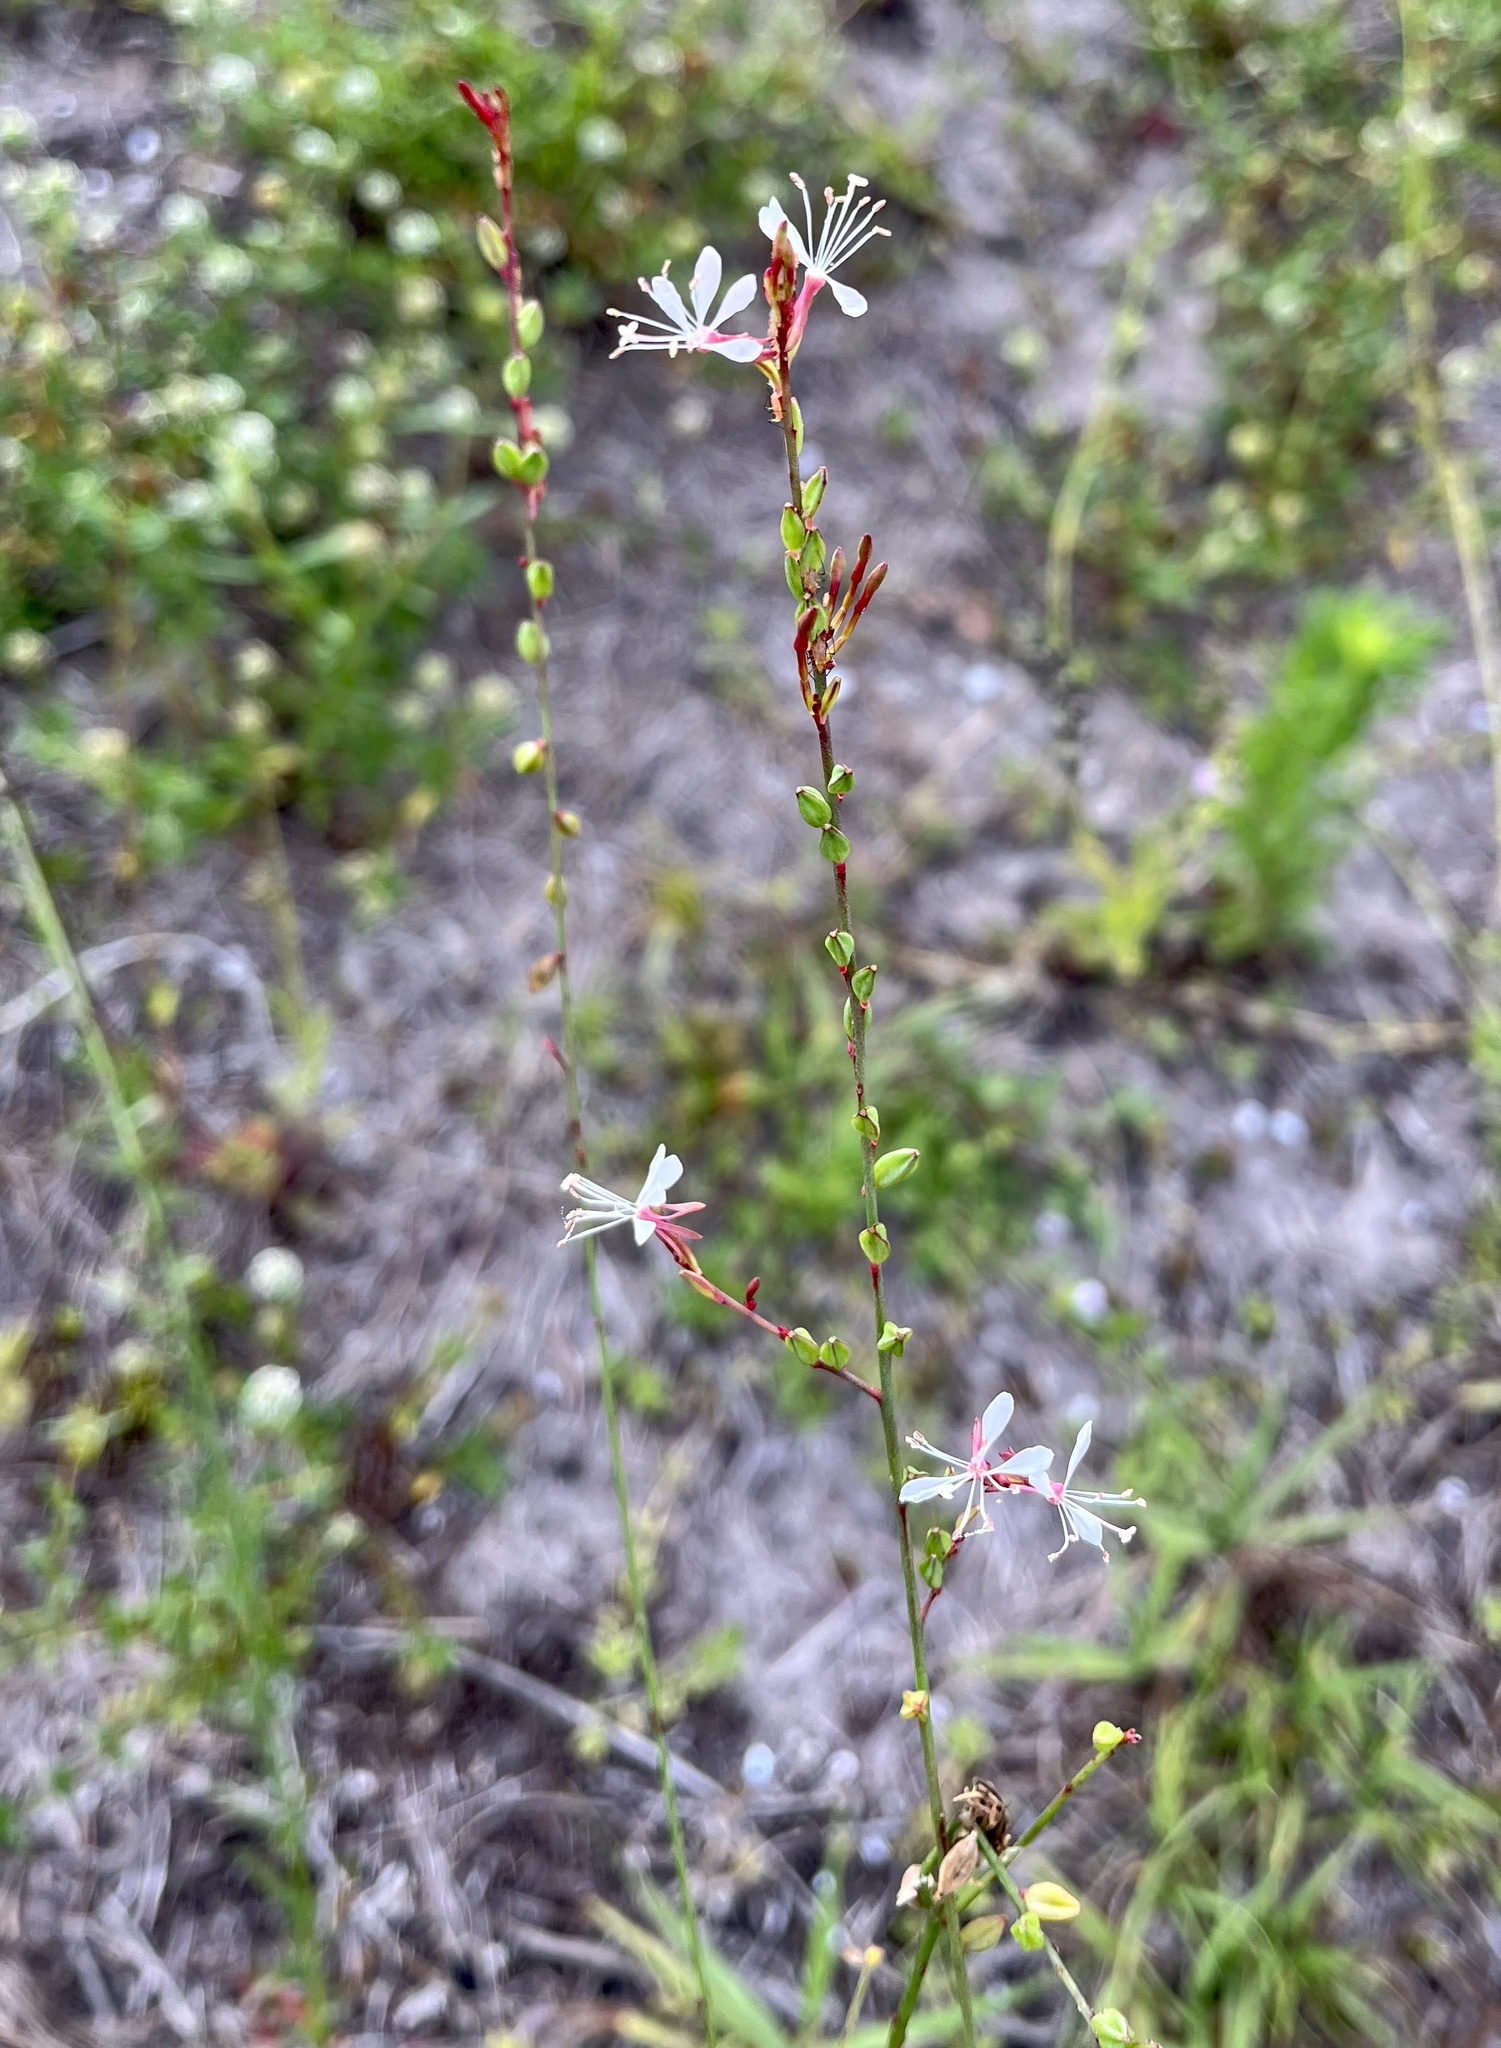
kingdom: Plantae
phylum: Tracheophyta
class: Magnoliopsida
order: Myrtales
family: Onagraceae
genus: Oenothera
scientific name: Oenothera simulans
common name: Southern beeblossom
